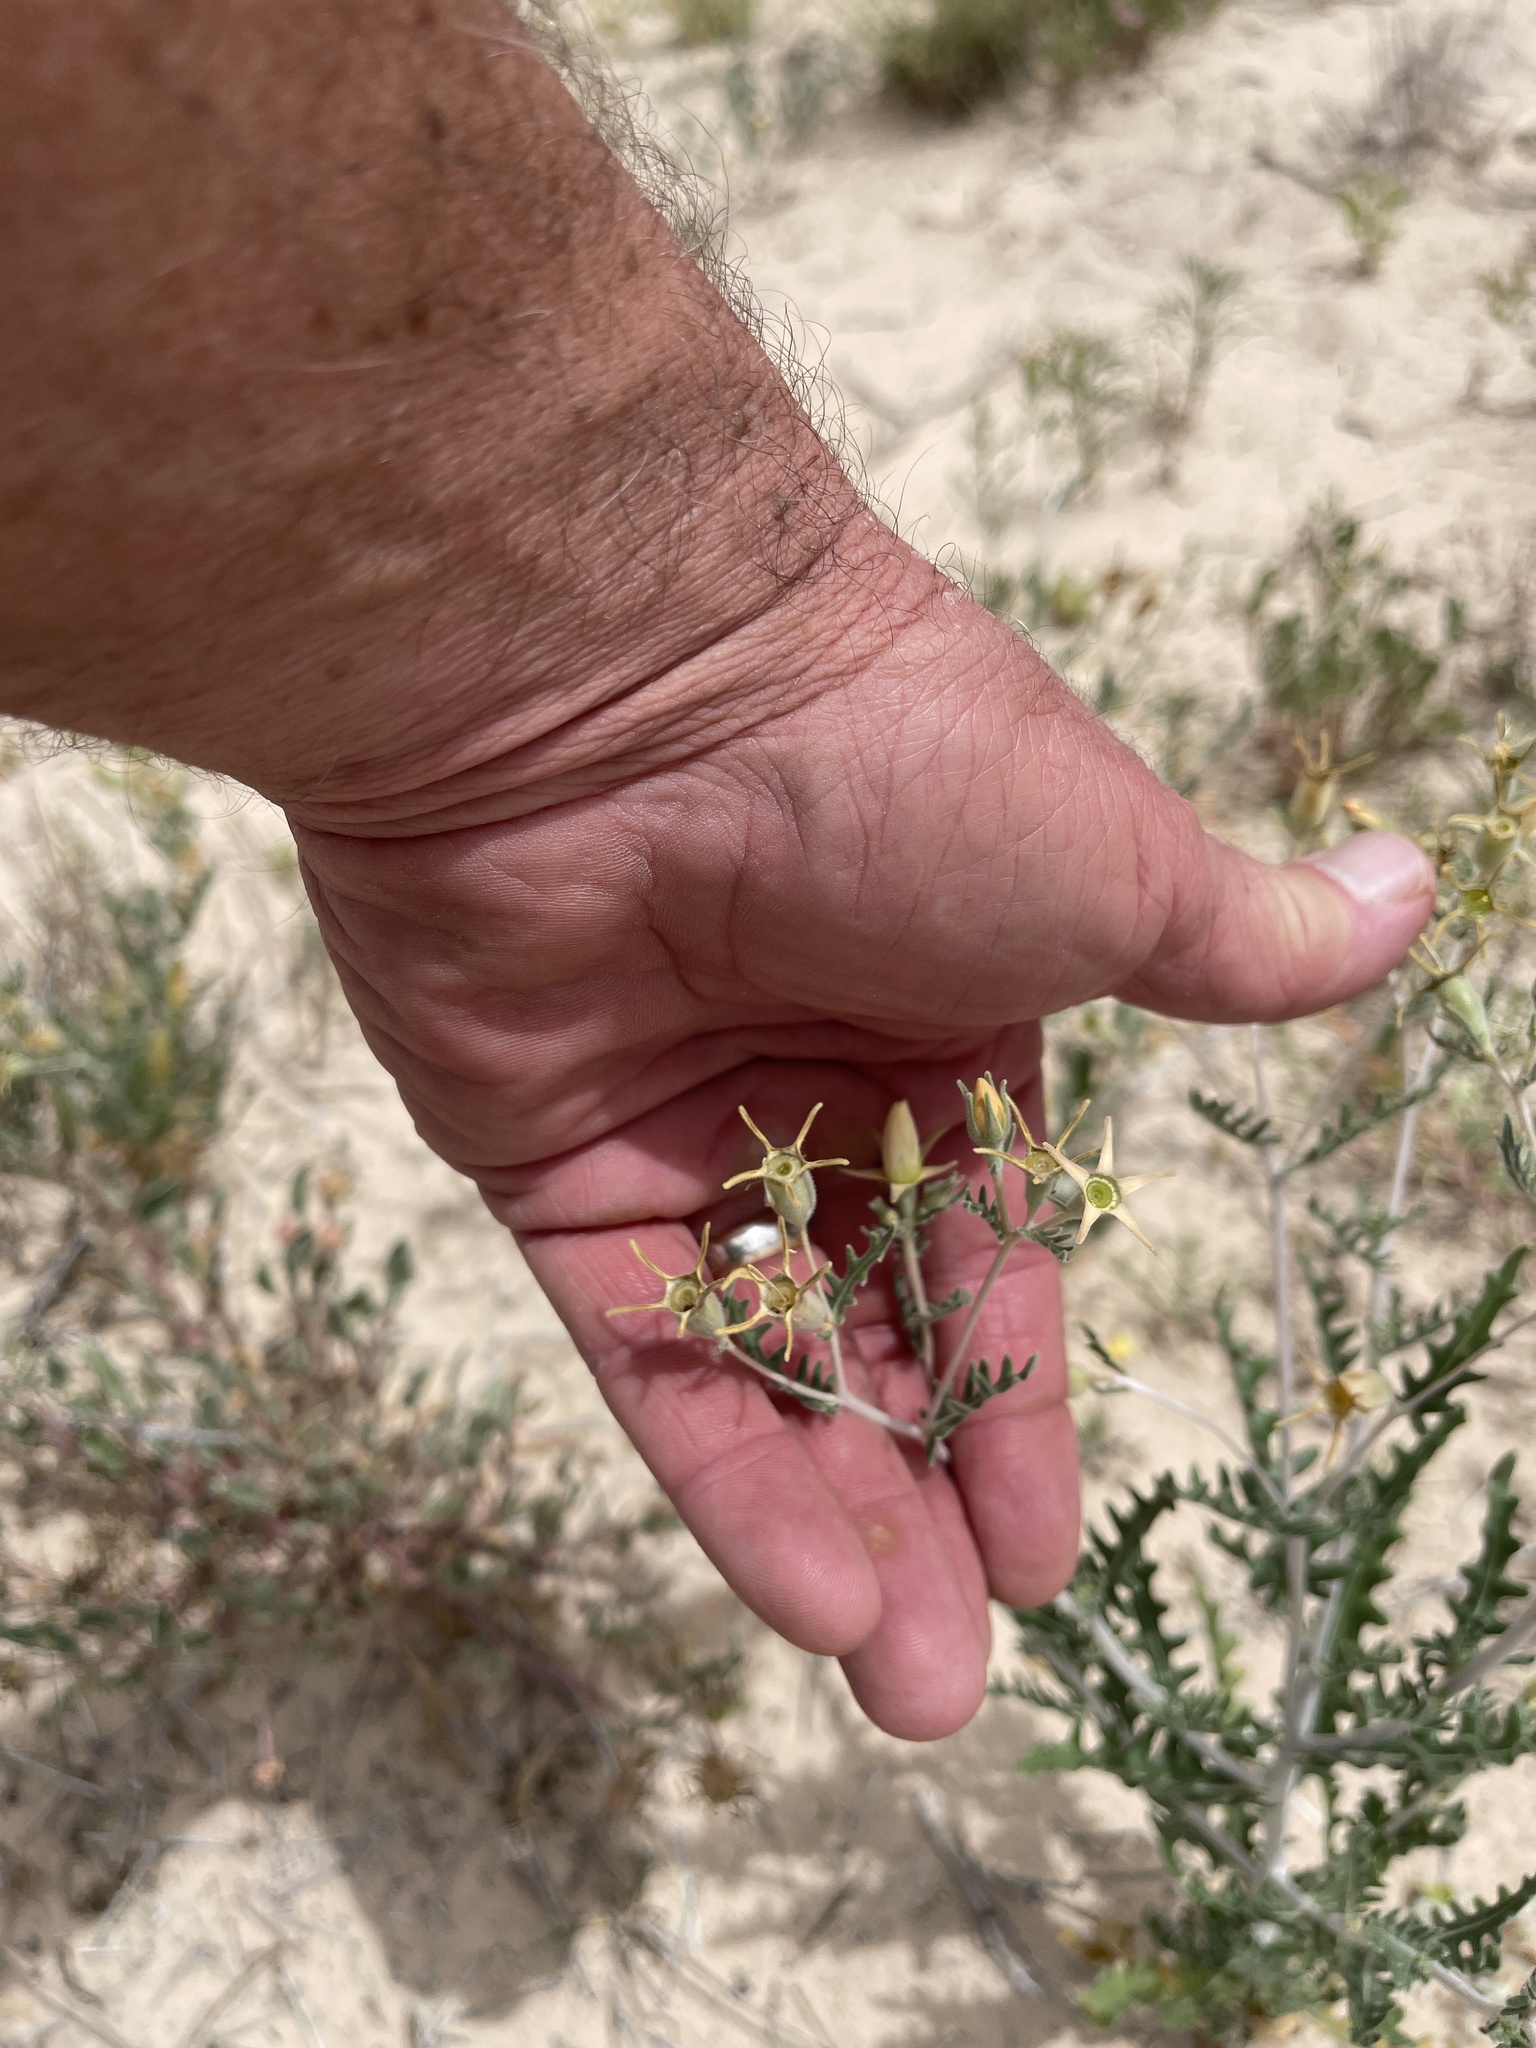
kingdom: Plantae
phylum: Tracheophyta
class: Magnoliopsida
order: Cornales
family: Loasaceae
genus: Mentzelia
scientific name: Mentzelia procera
